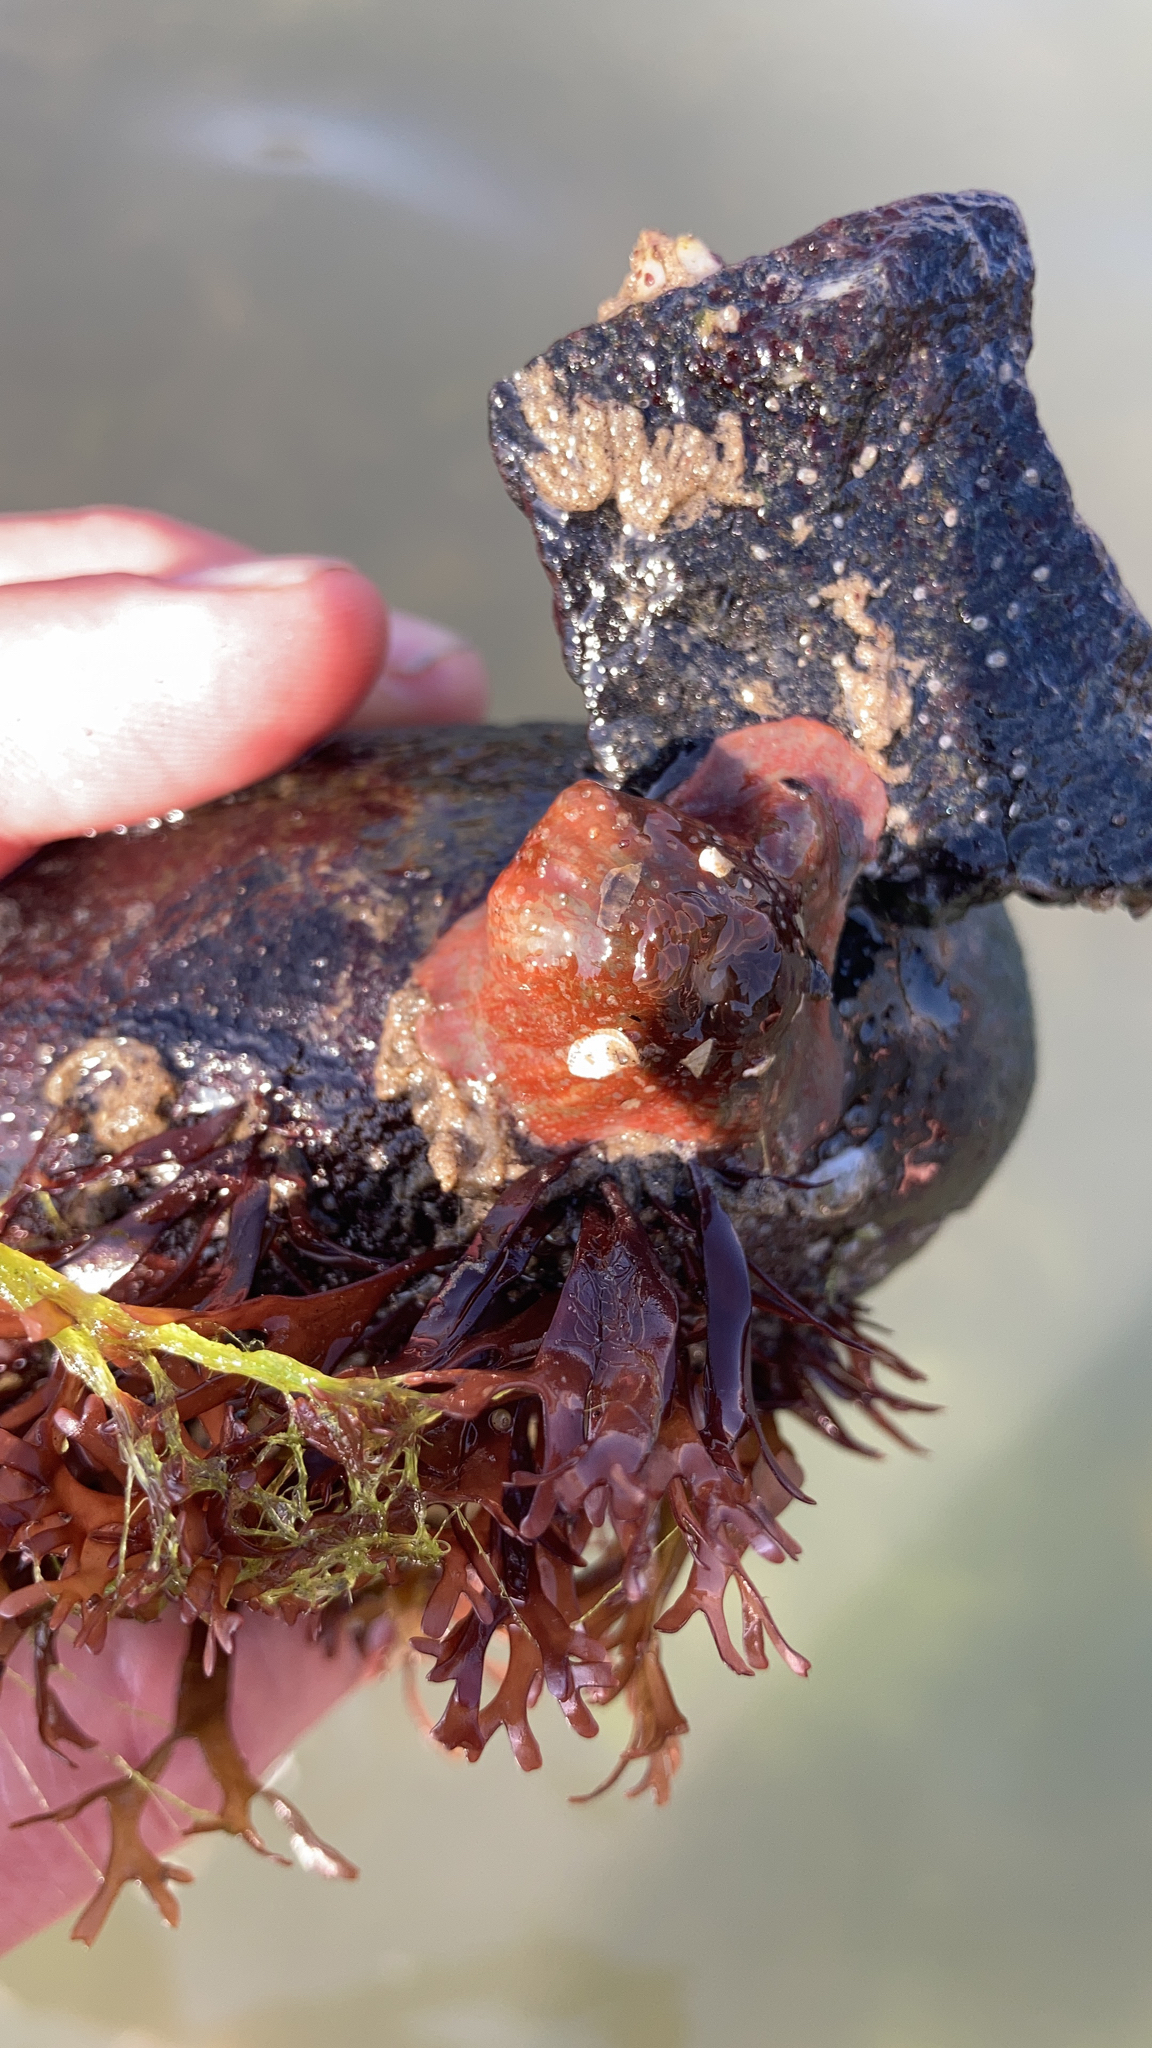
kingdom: Animalia
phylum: Cnidaria
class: Anthozoa
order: Actiniaria
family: Actiniidae
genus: Urticina
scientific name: Urticina felina
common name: Dahlia anemone
